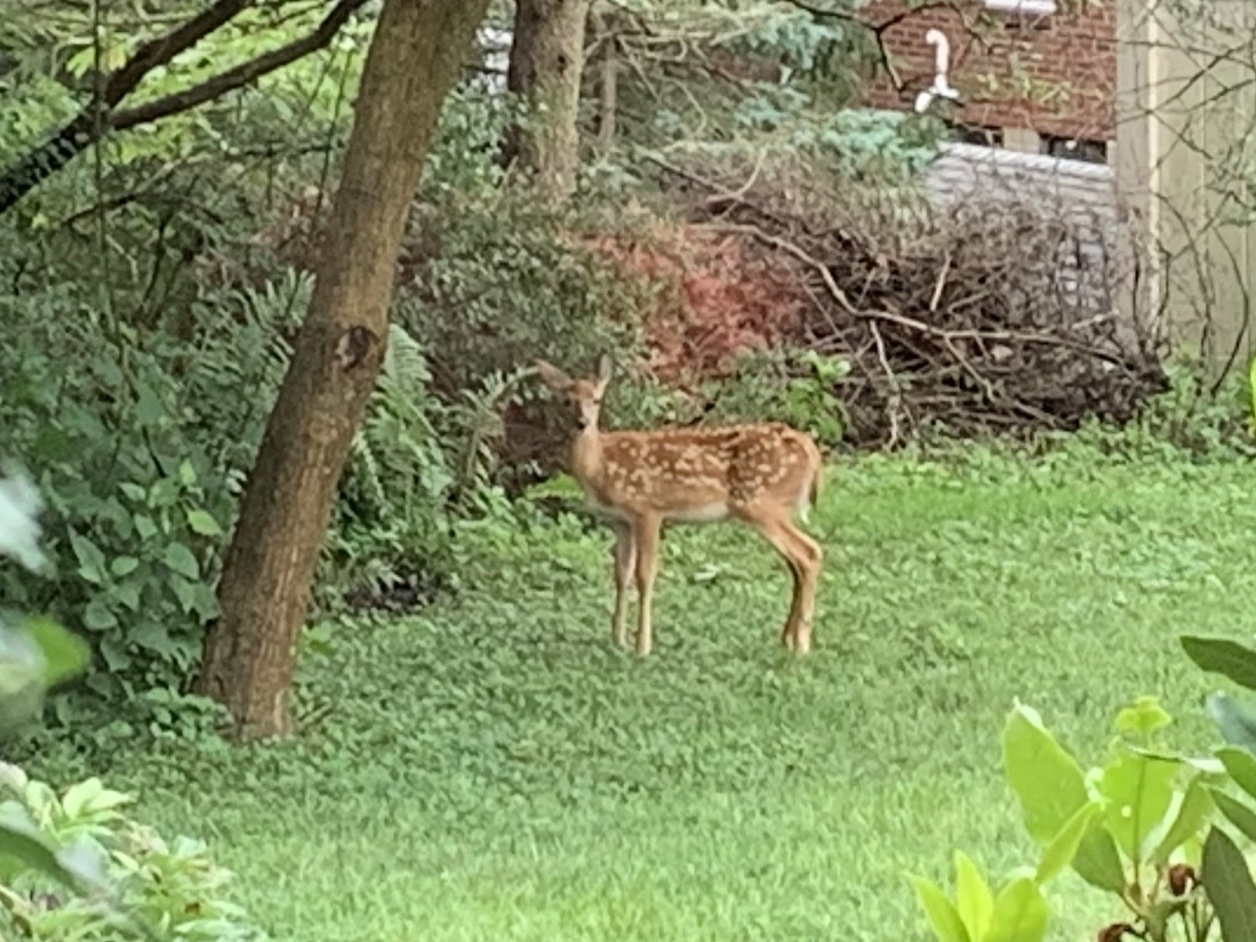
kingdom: Animalia
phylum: Chordata
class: Mammalia
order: Artiodactyla
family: Cervidae
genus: Odocoileus
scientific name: Odocoileus virginianus
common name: White-tailed deer
